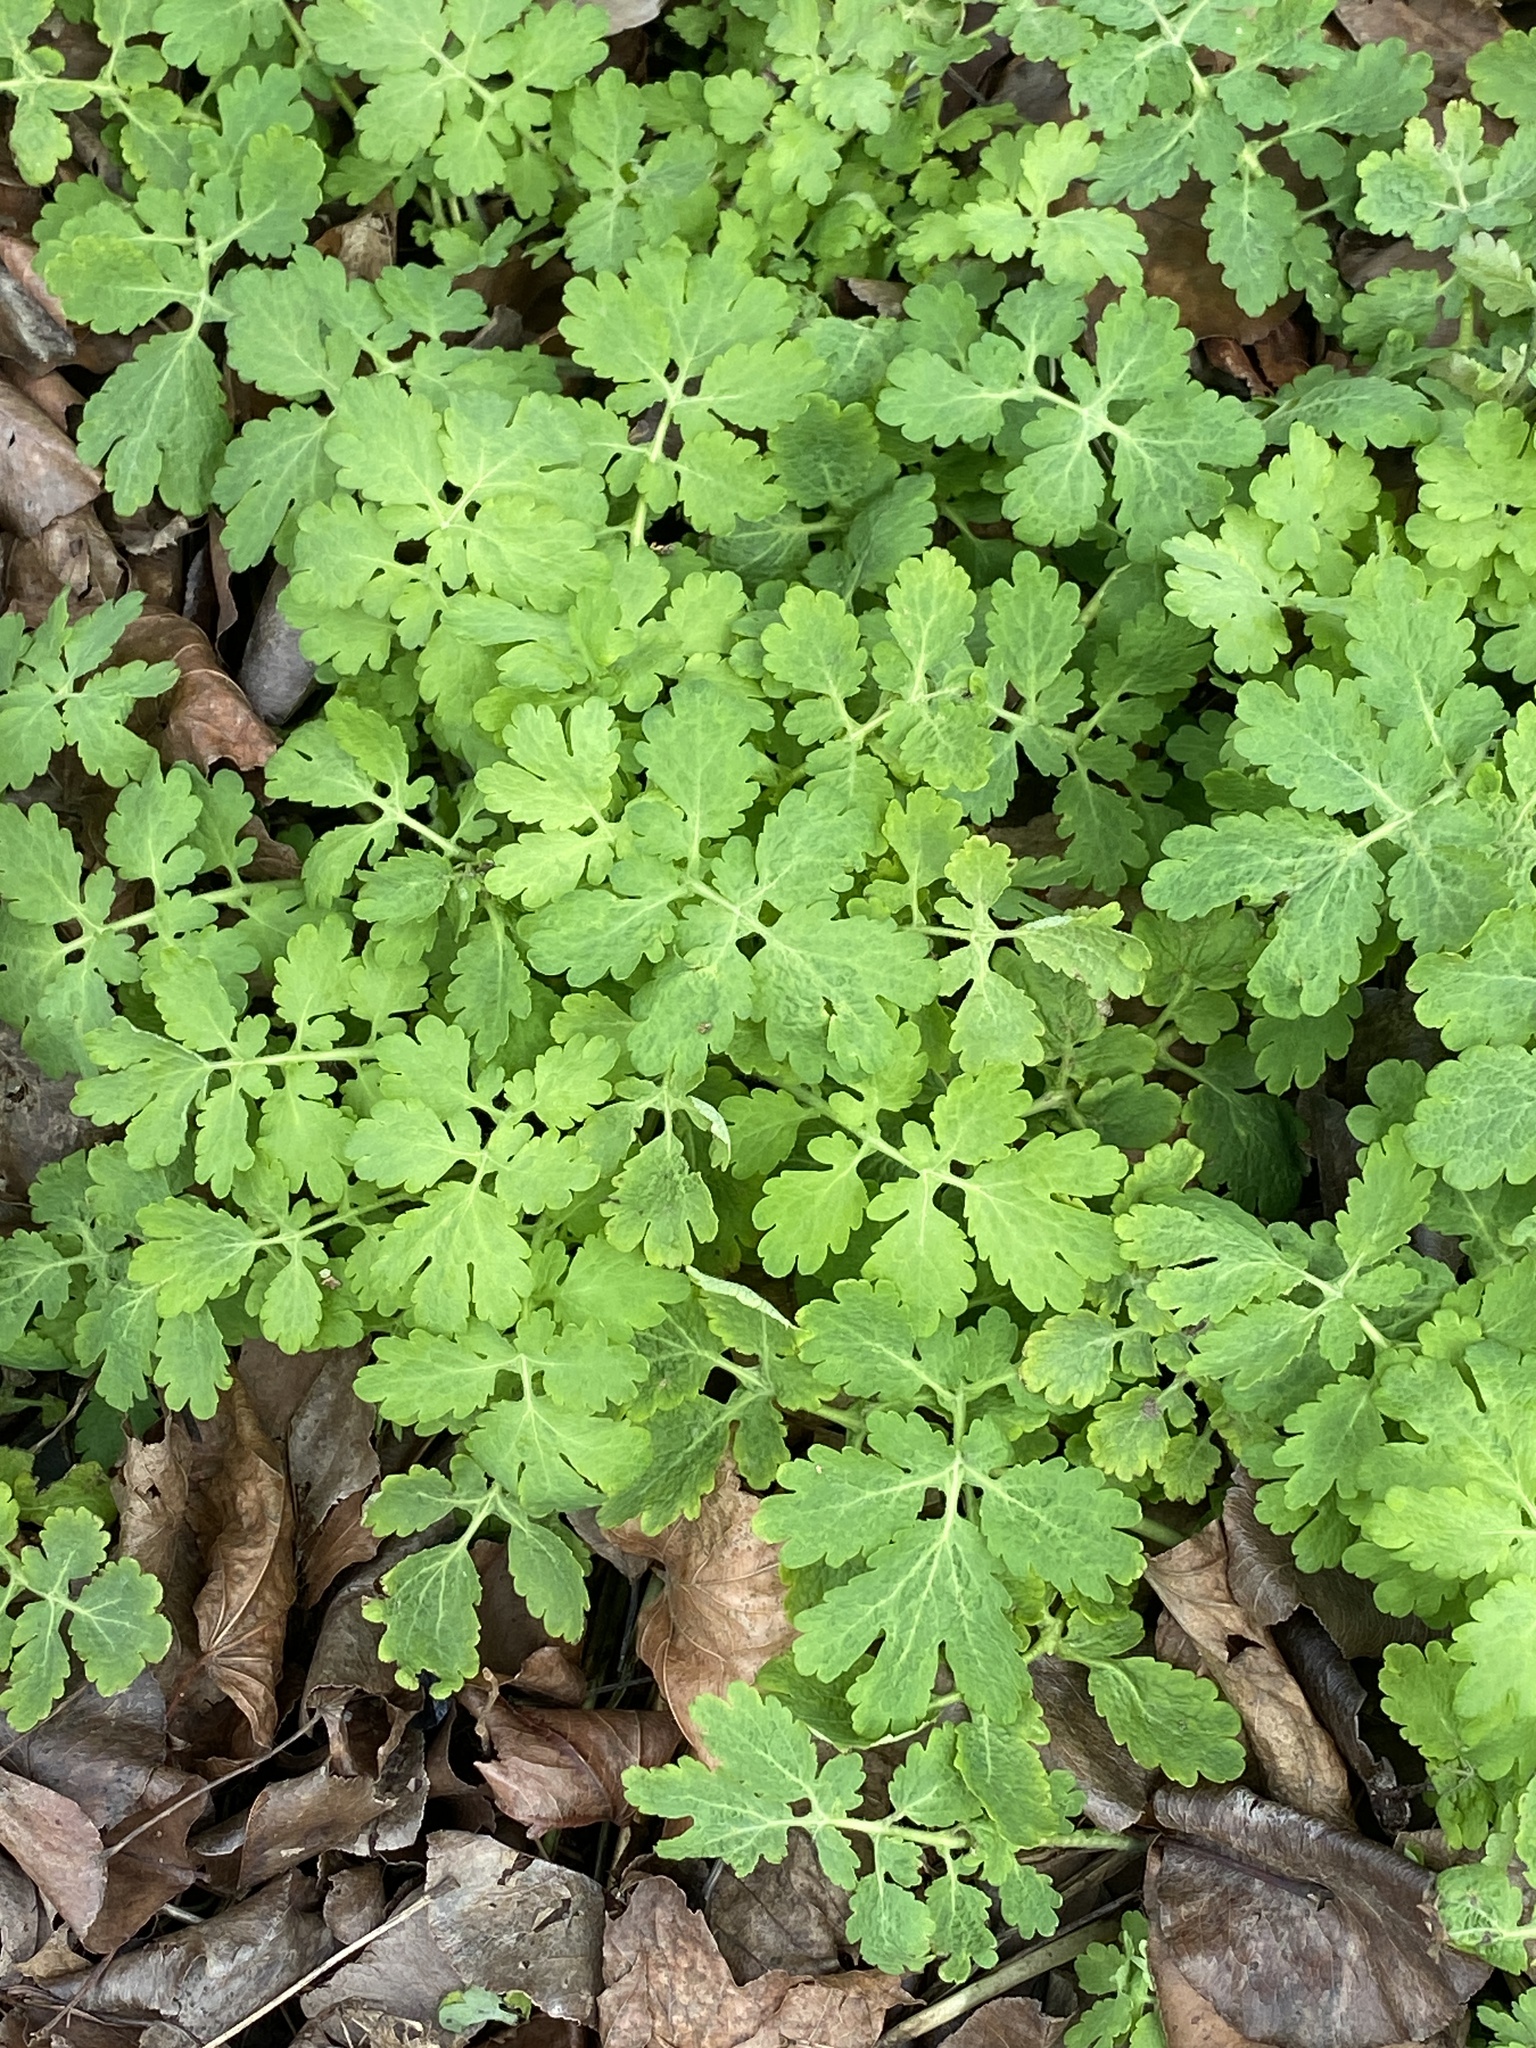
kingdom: Plantae
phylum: Tracheophyta
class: Magnoliopsida
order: Ranunculales
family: Papaveraceae
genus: Chelidonium
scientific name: Chelidonium majus
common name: Greater celandine
